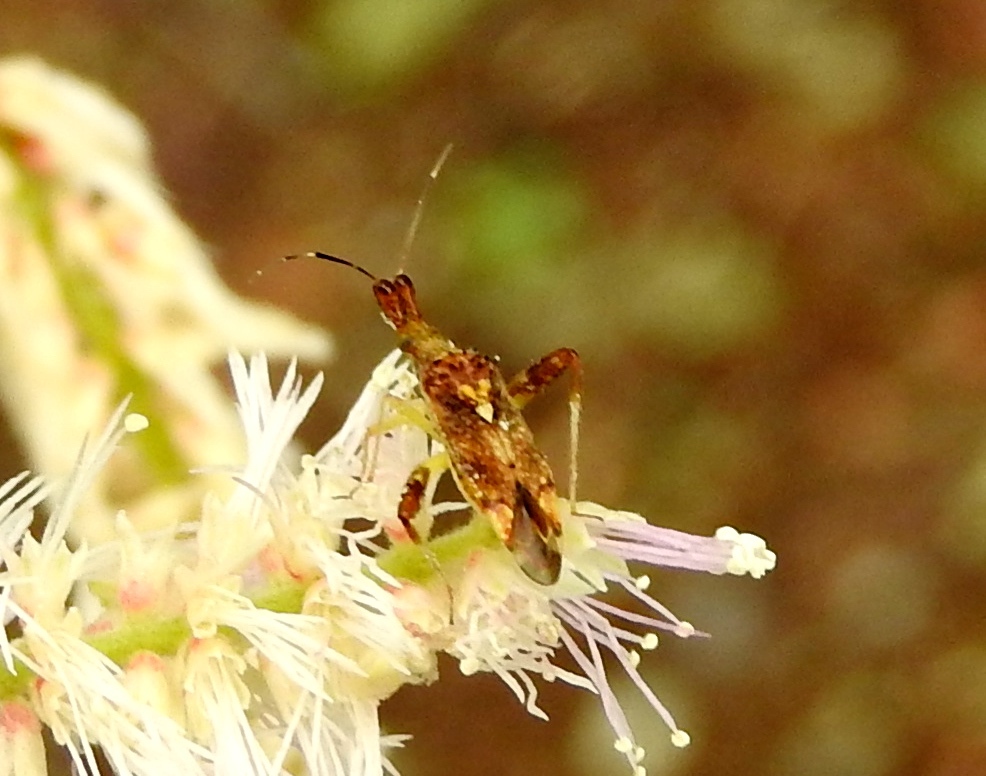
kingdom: Animalia
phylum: Arthropoda
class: Insecta
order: Hemiptera
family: Miridae
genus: Neurocolpus
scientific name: Neurocolpus
